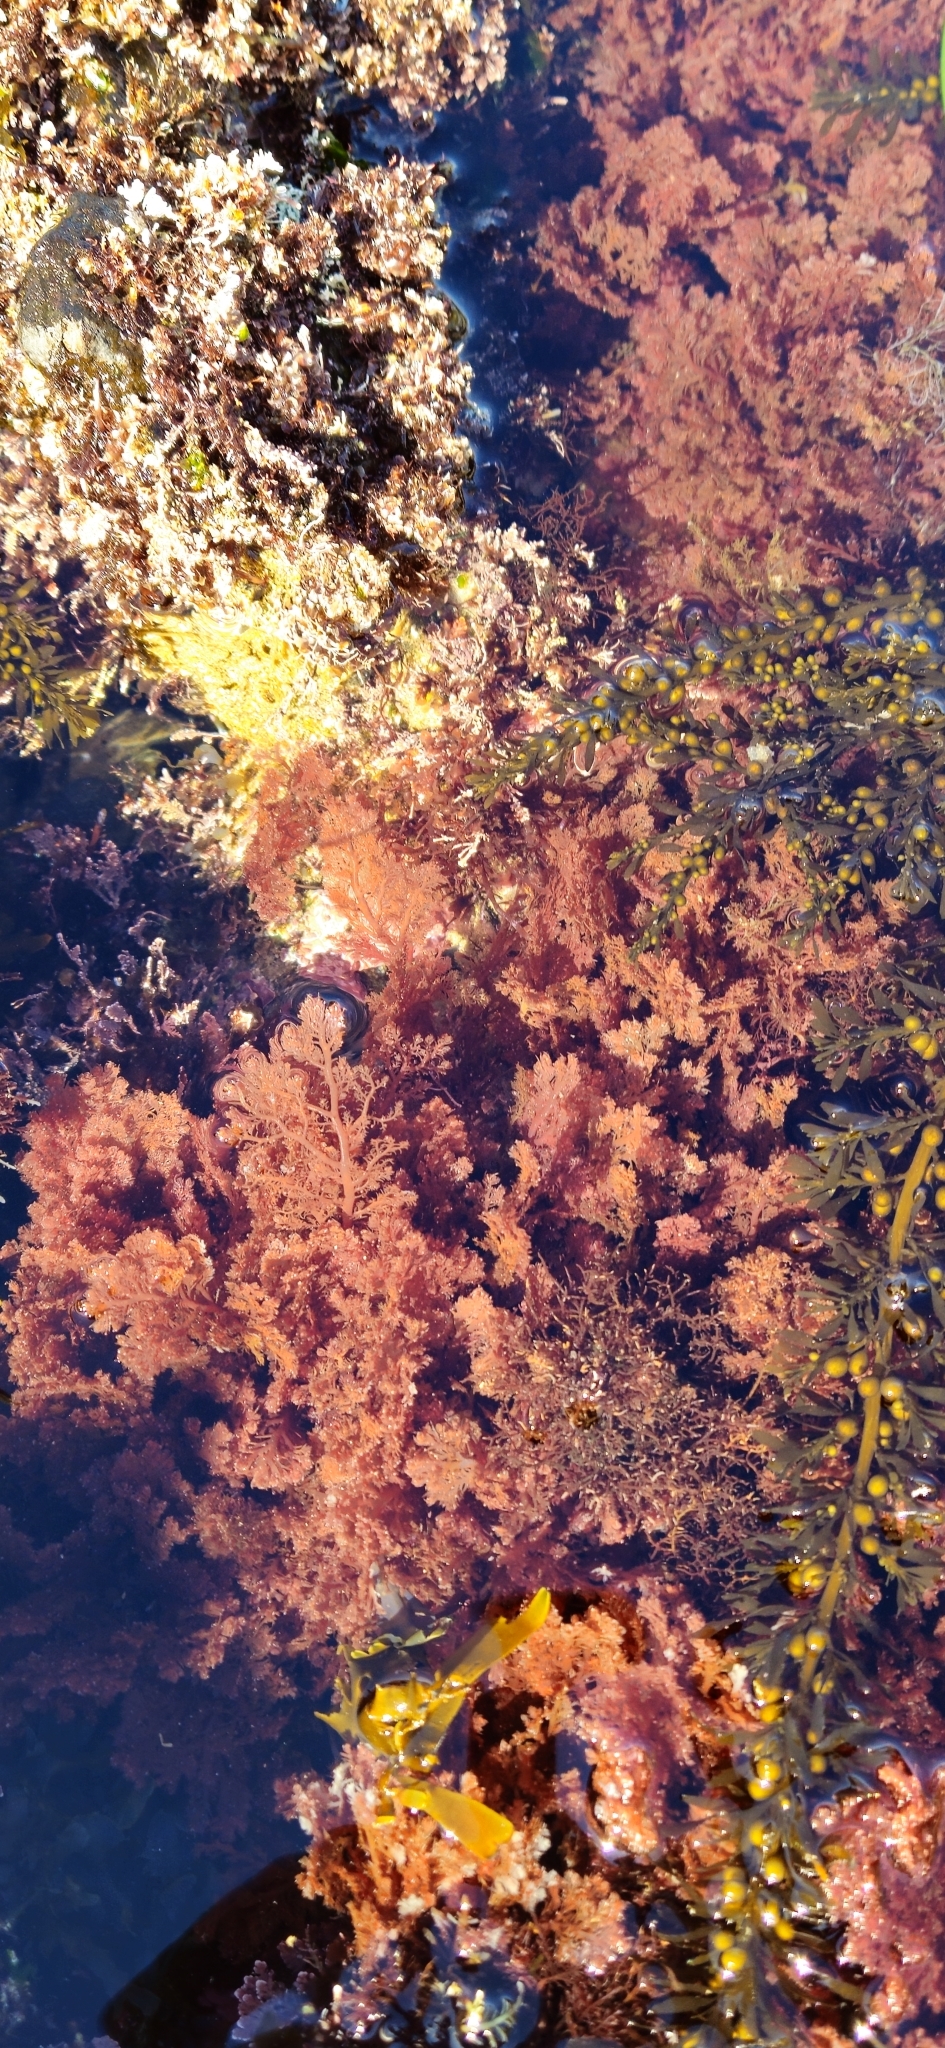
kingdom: Plantae
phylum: Rhodophyta
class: Florideophyceae
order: Plocamiales
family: Plocamiaceae
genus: Plocamium
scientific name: Plocamium cartilagineum
